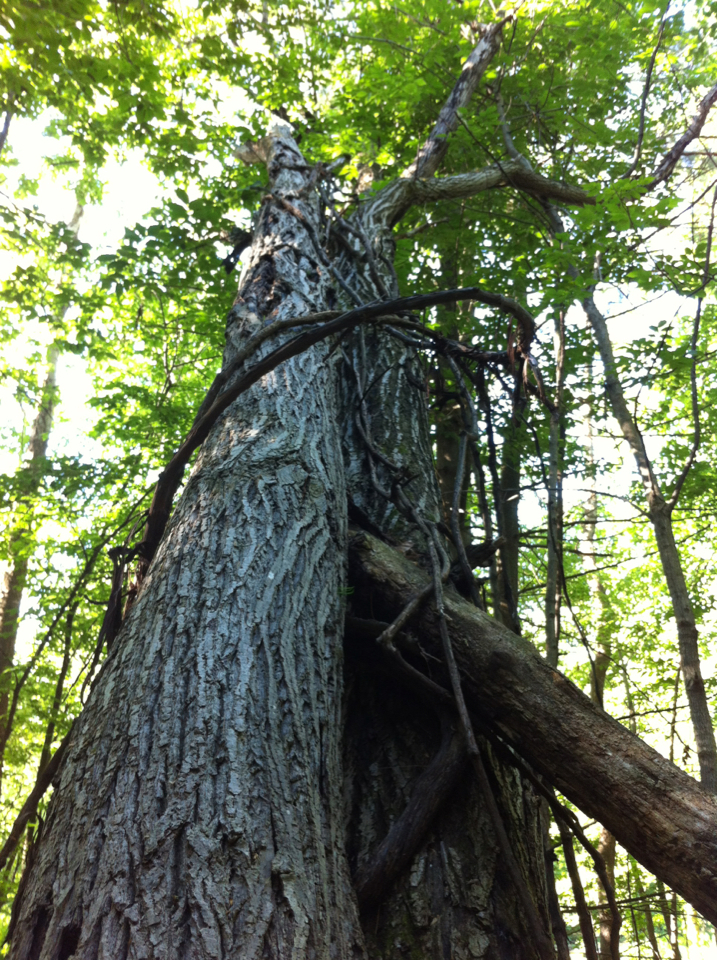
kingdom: Plantae
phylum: Tracheophyta
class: Magnoliopsida
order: Fagales
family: Juglandaceae
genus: Juglans
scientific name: Juglans cinerea
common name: Butternut
